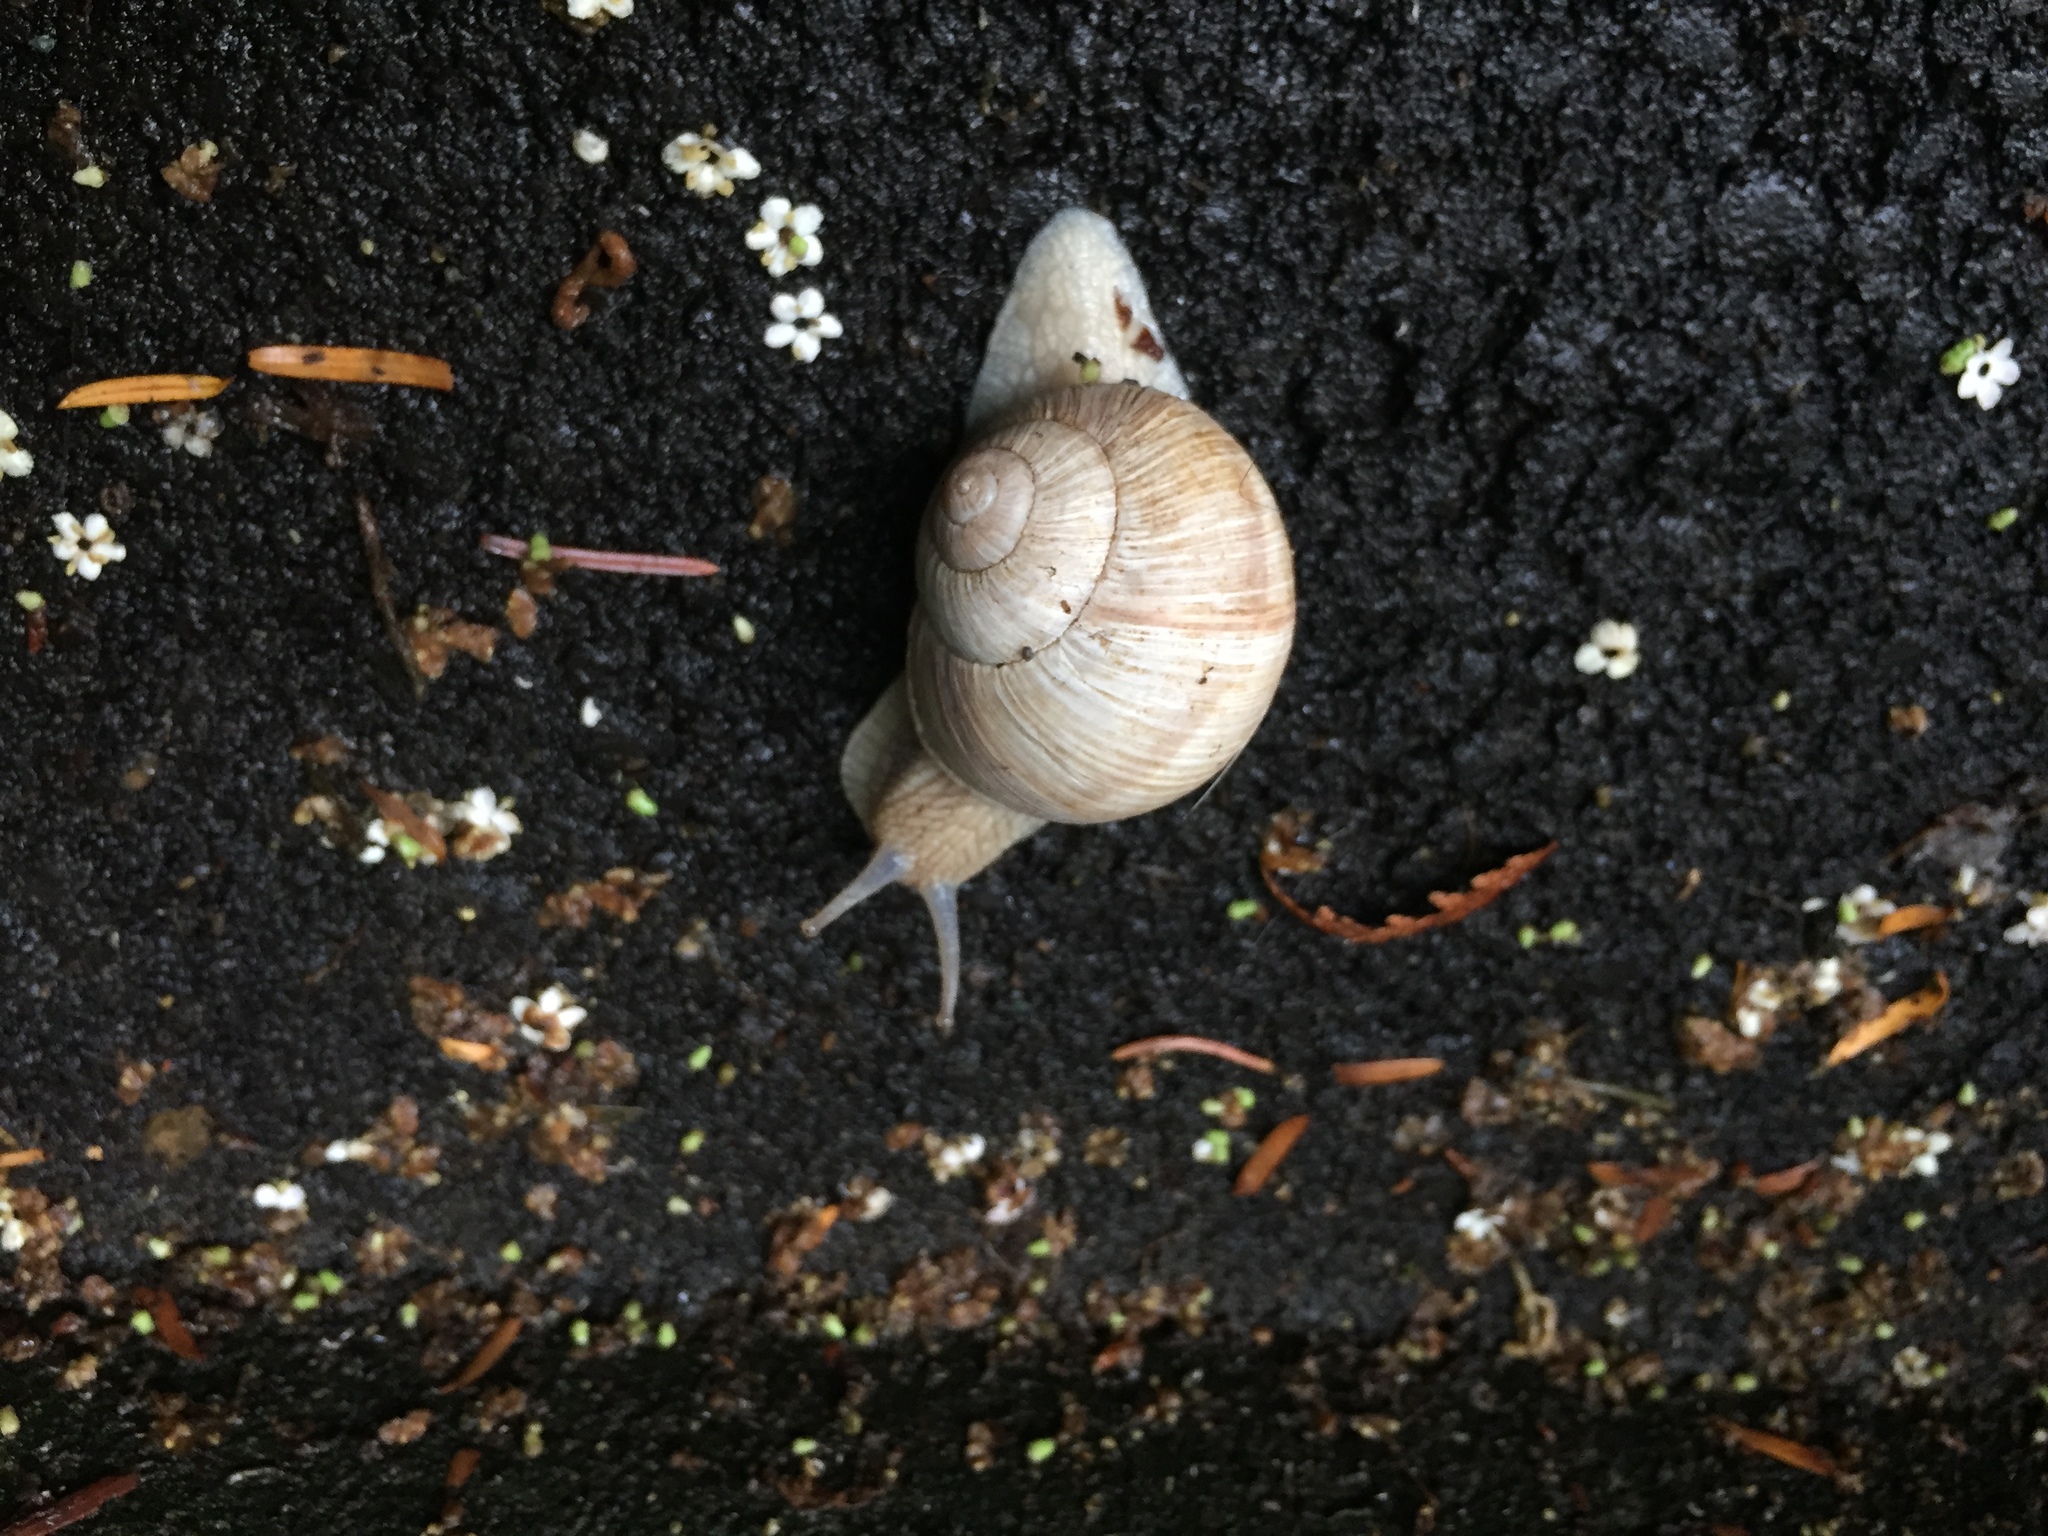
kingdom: Animalia
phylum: Mollusca
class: Gastropoda
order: Stylommatophora
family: Helicidae
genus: Helix
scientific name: Helix pomatia
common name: Roman snail
